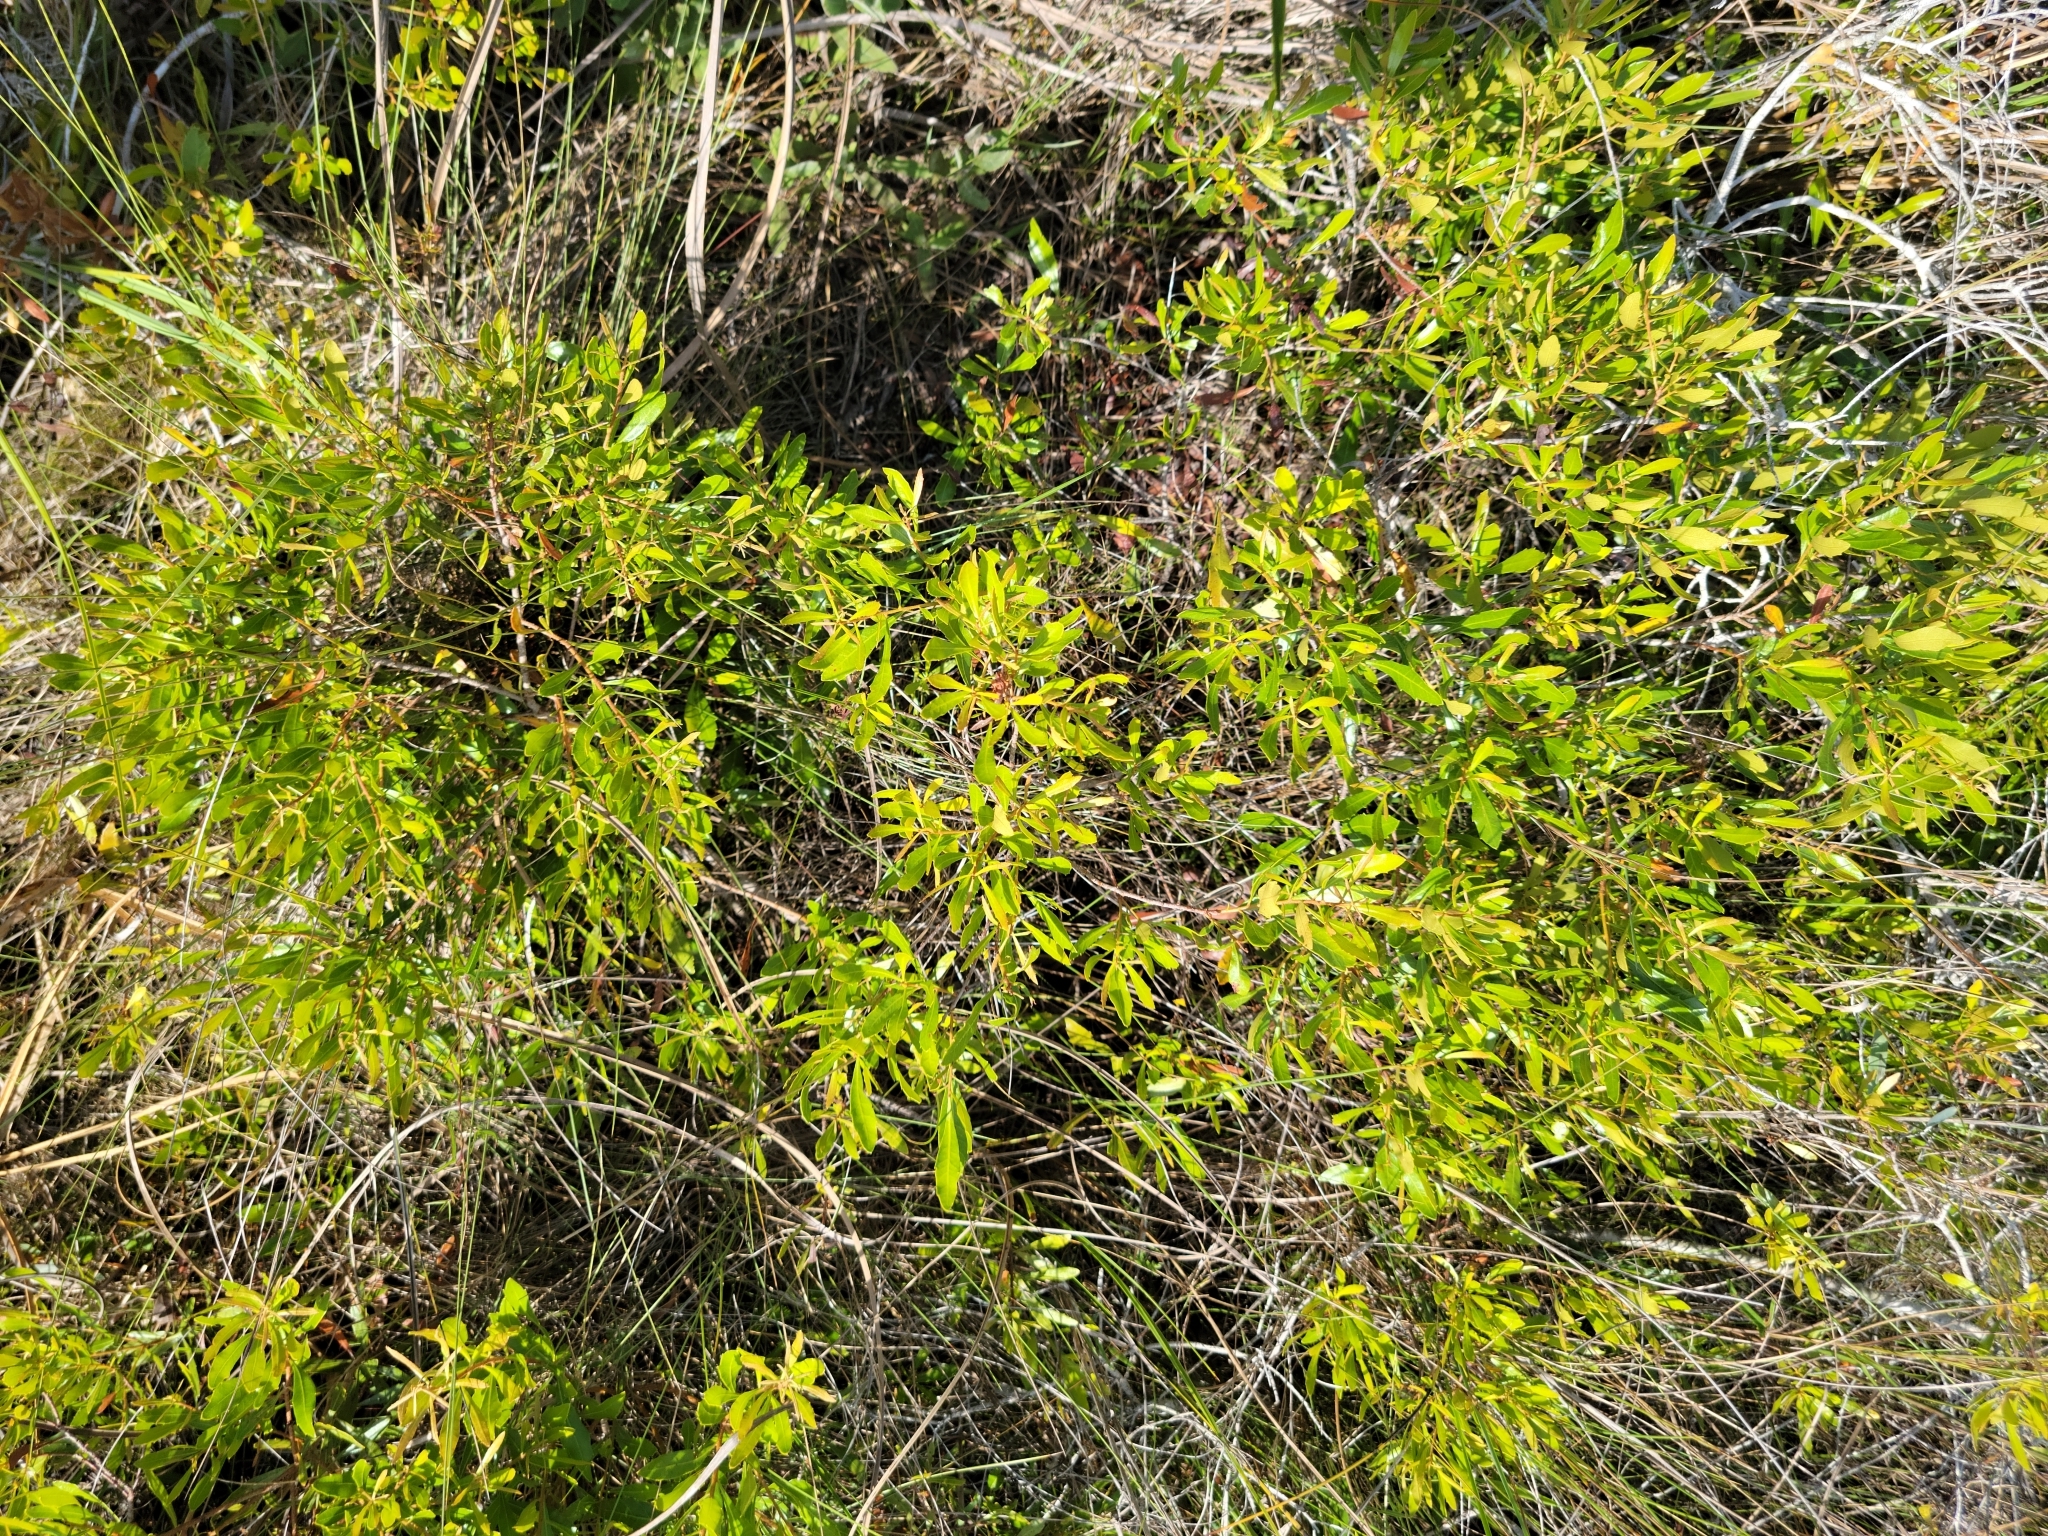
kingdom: Plantae
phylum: Tracheophyta
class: Magnoliopsida
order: Fagales
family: Myricaceae
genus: Morella
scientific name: Morella cerifera
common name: Wax myrtle
